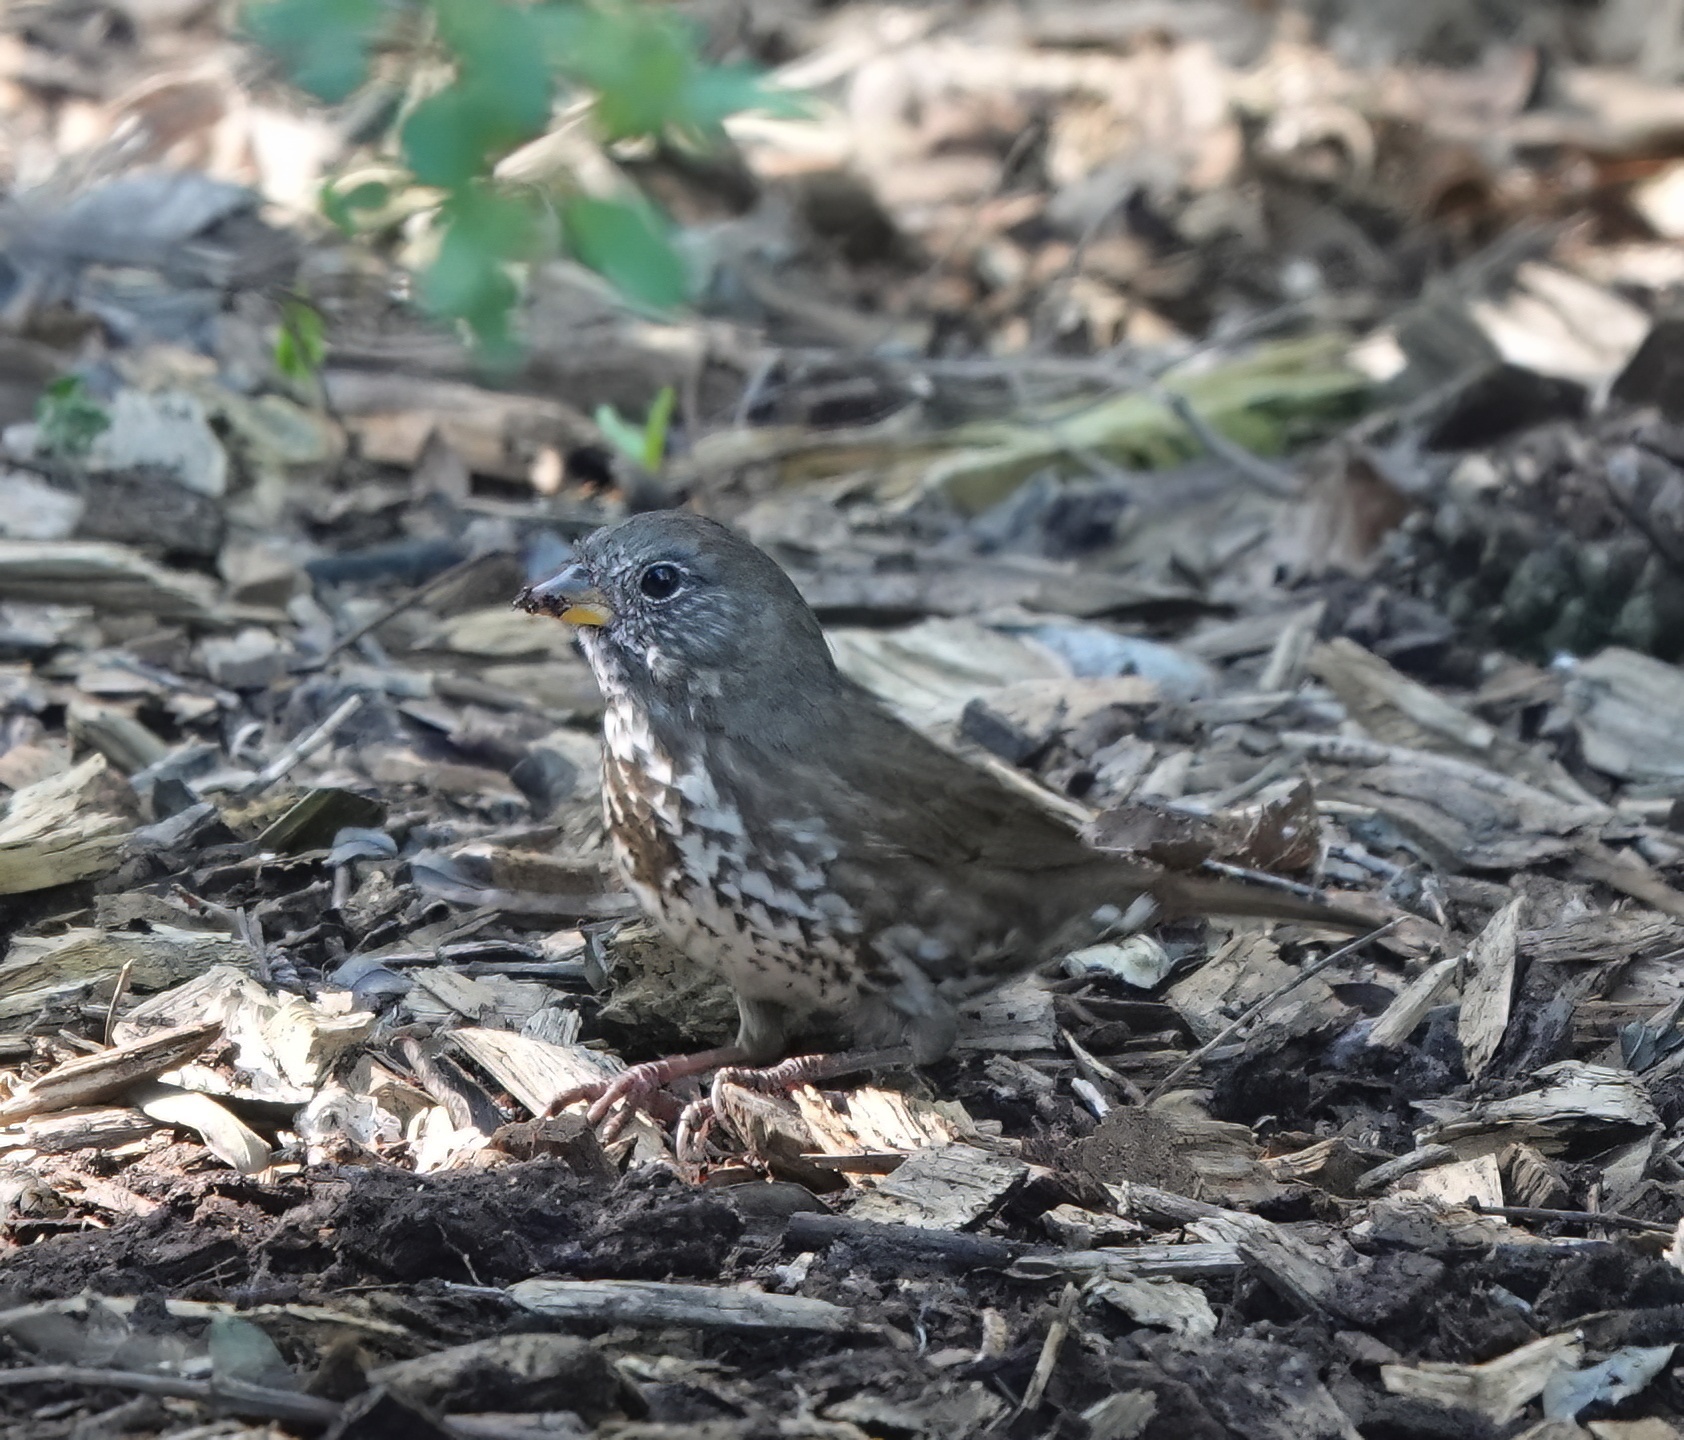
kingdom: Animalia
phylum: Chordata
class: Aves
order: Passeriformes
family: Passerellidae
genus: Passerella
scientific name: Passerella iliaca
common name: Fox sparrow
